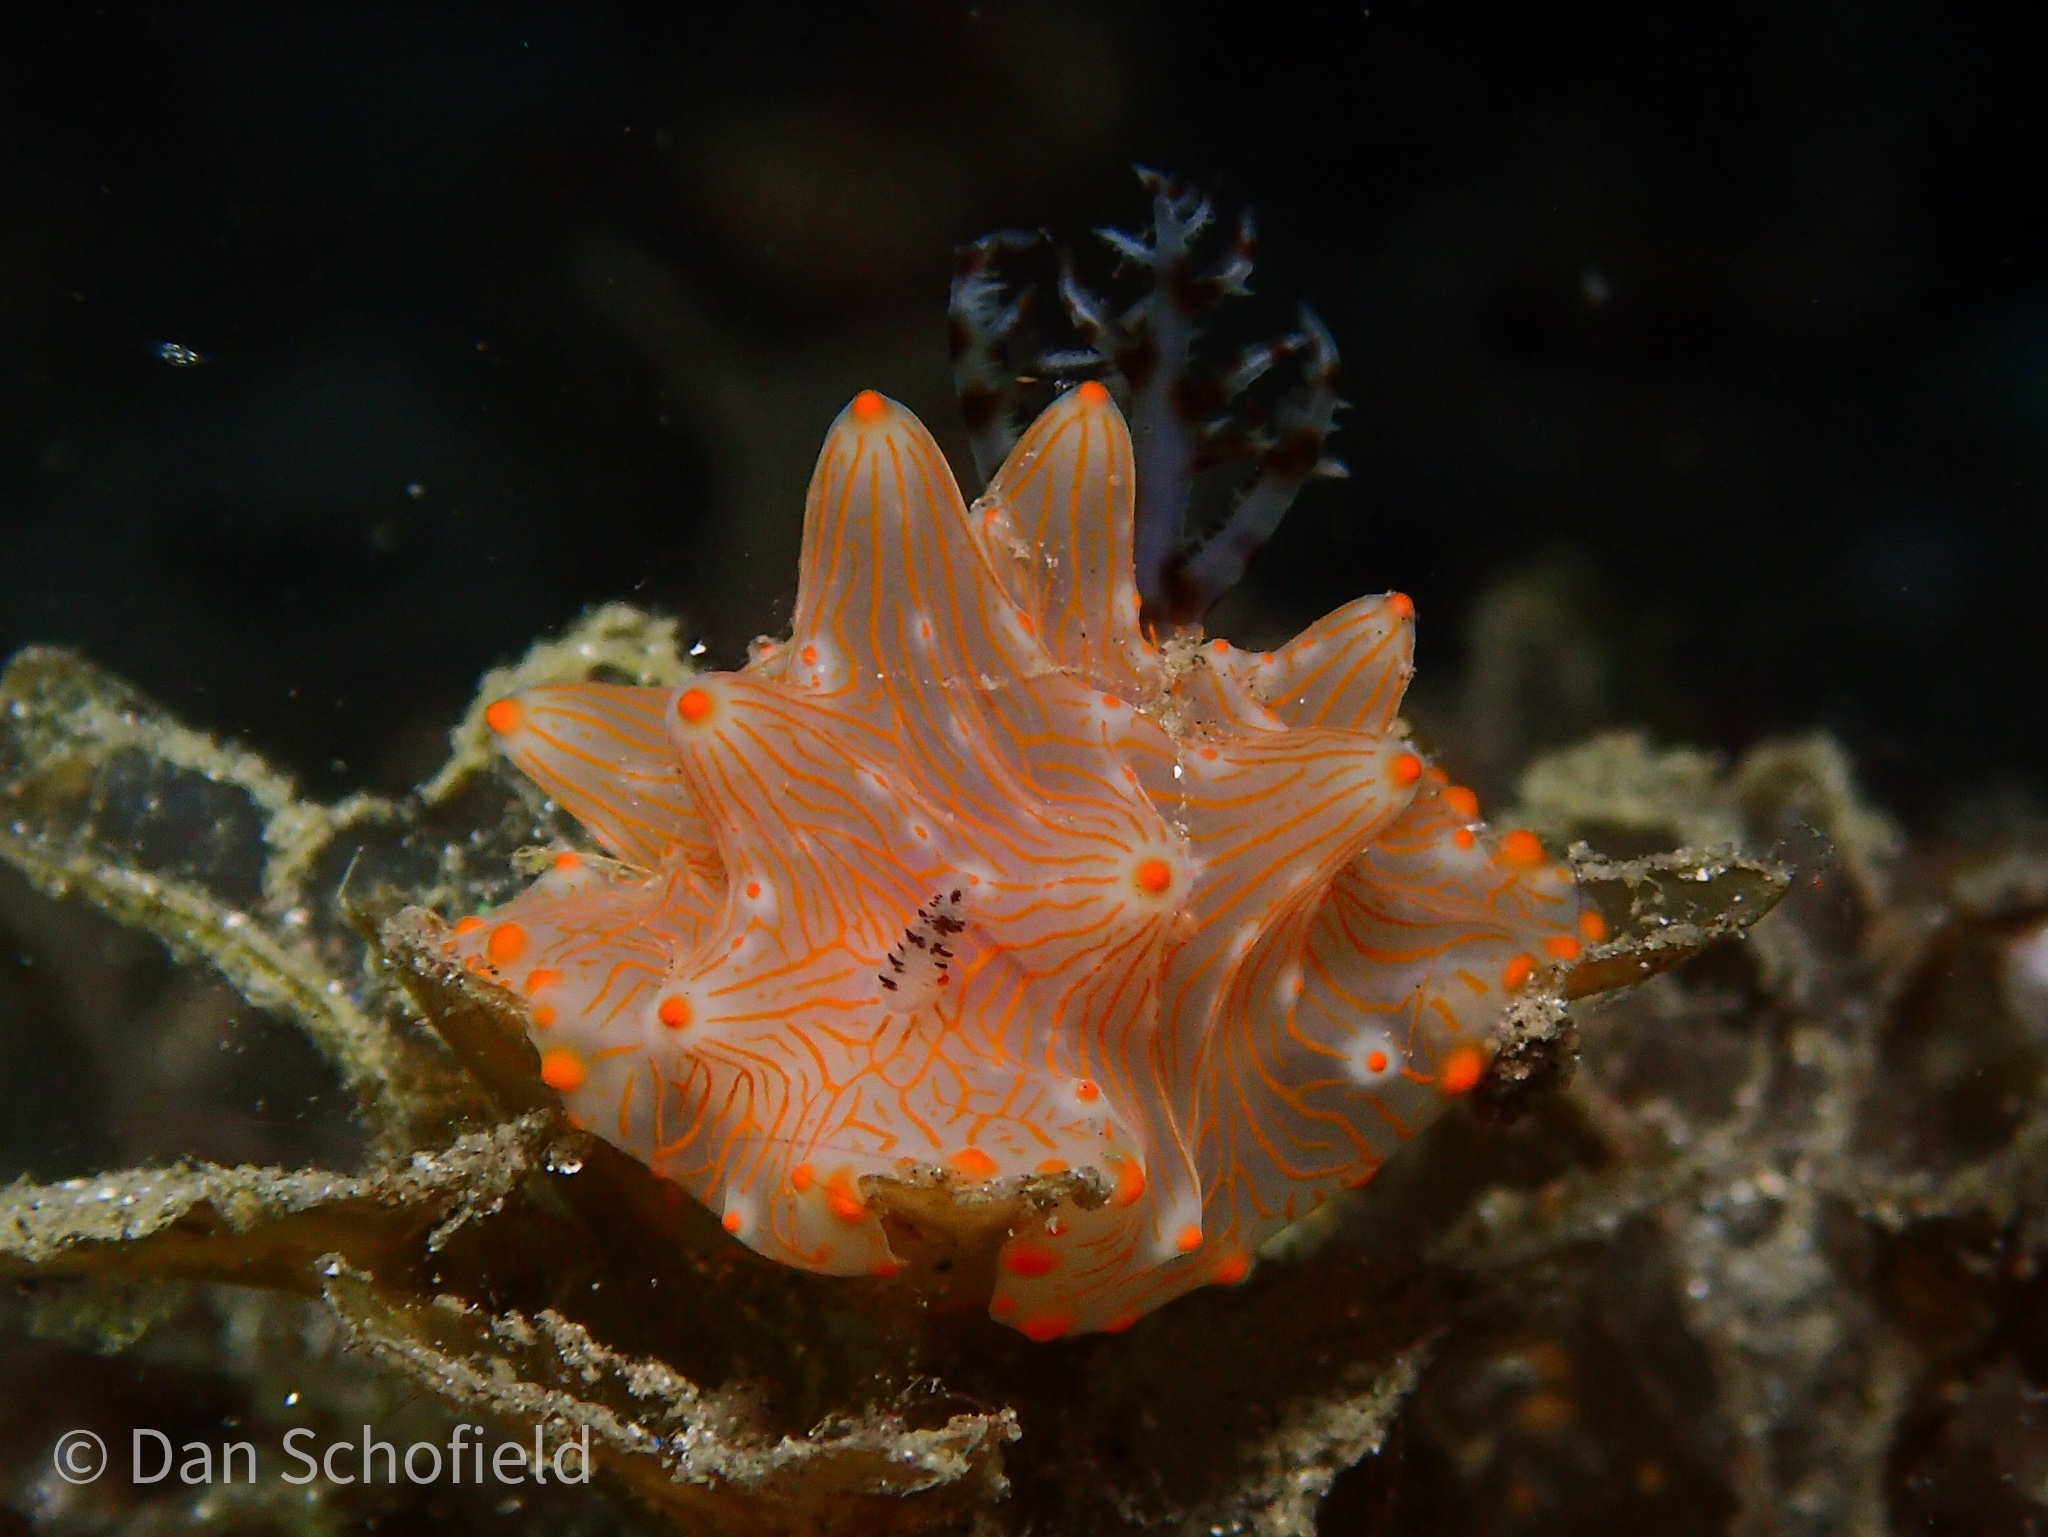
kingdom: Animalia
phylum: Mollusca
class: Gastropoda
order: Nudibranchia
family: Discodorididae
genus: Halgerda
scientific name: Halgerda batangas
